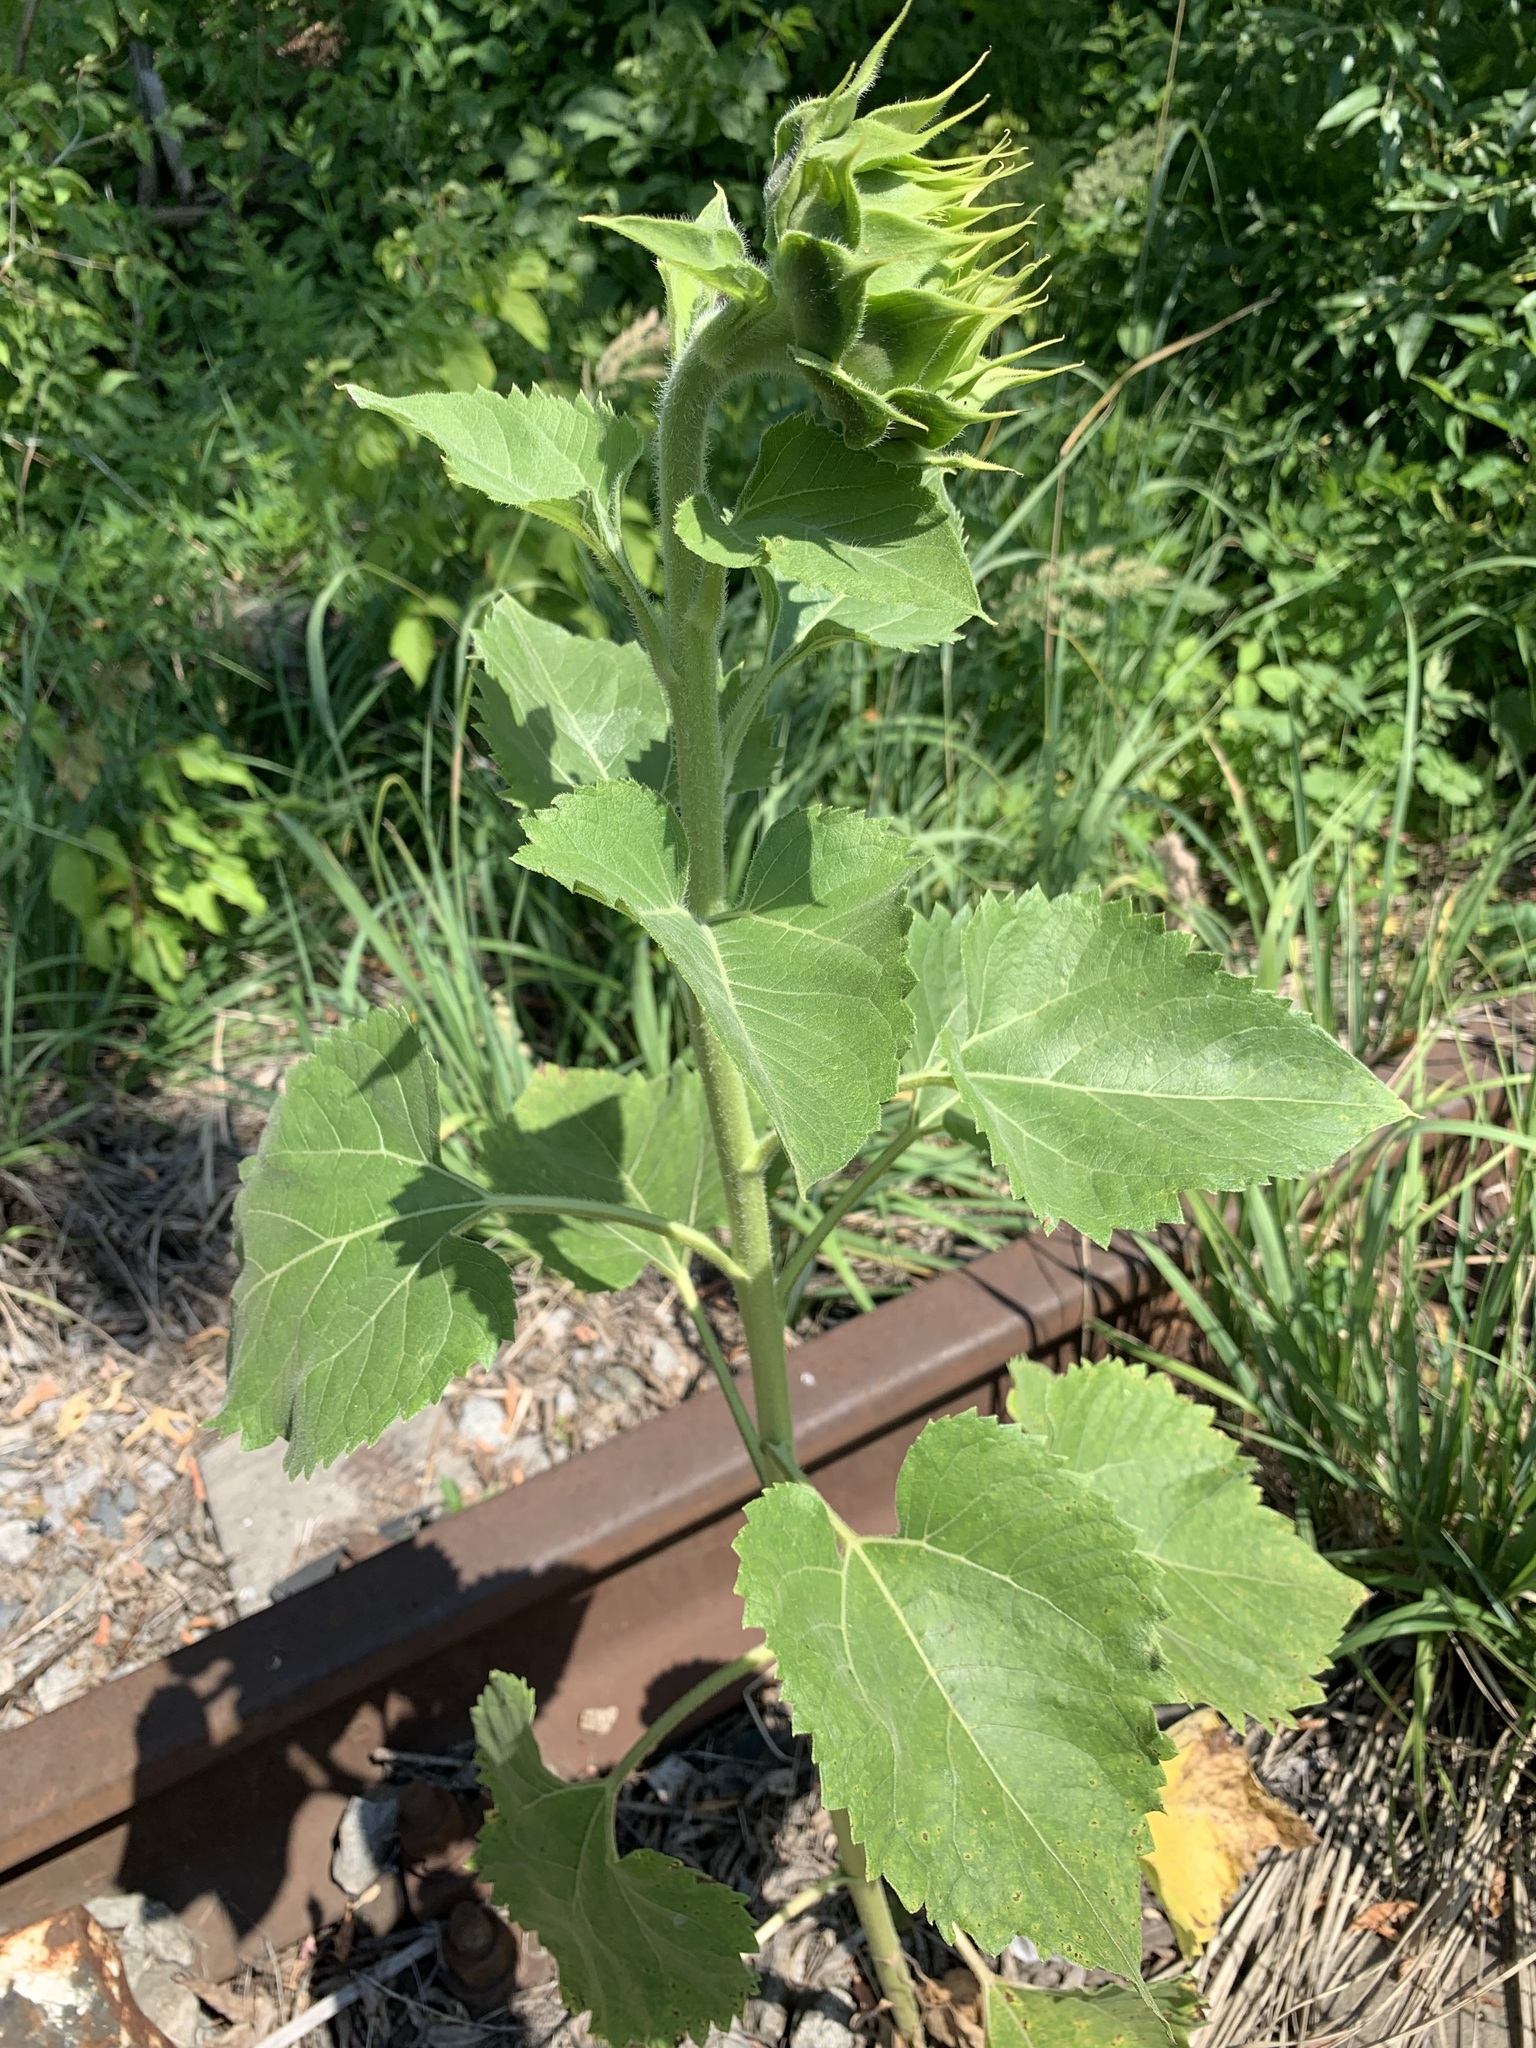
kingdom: Plantae
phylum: Tracheophyta
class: Magnoliopsida
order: Asterales
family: Asteraceae
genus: Helianthus
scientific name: Helianthus annuus
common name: Sunflower
